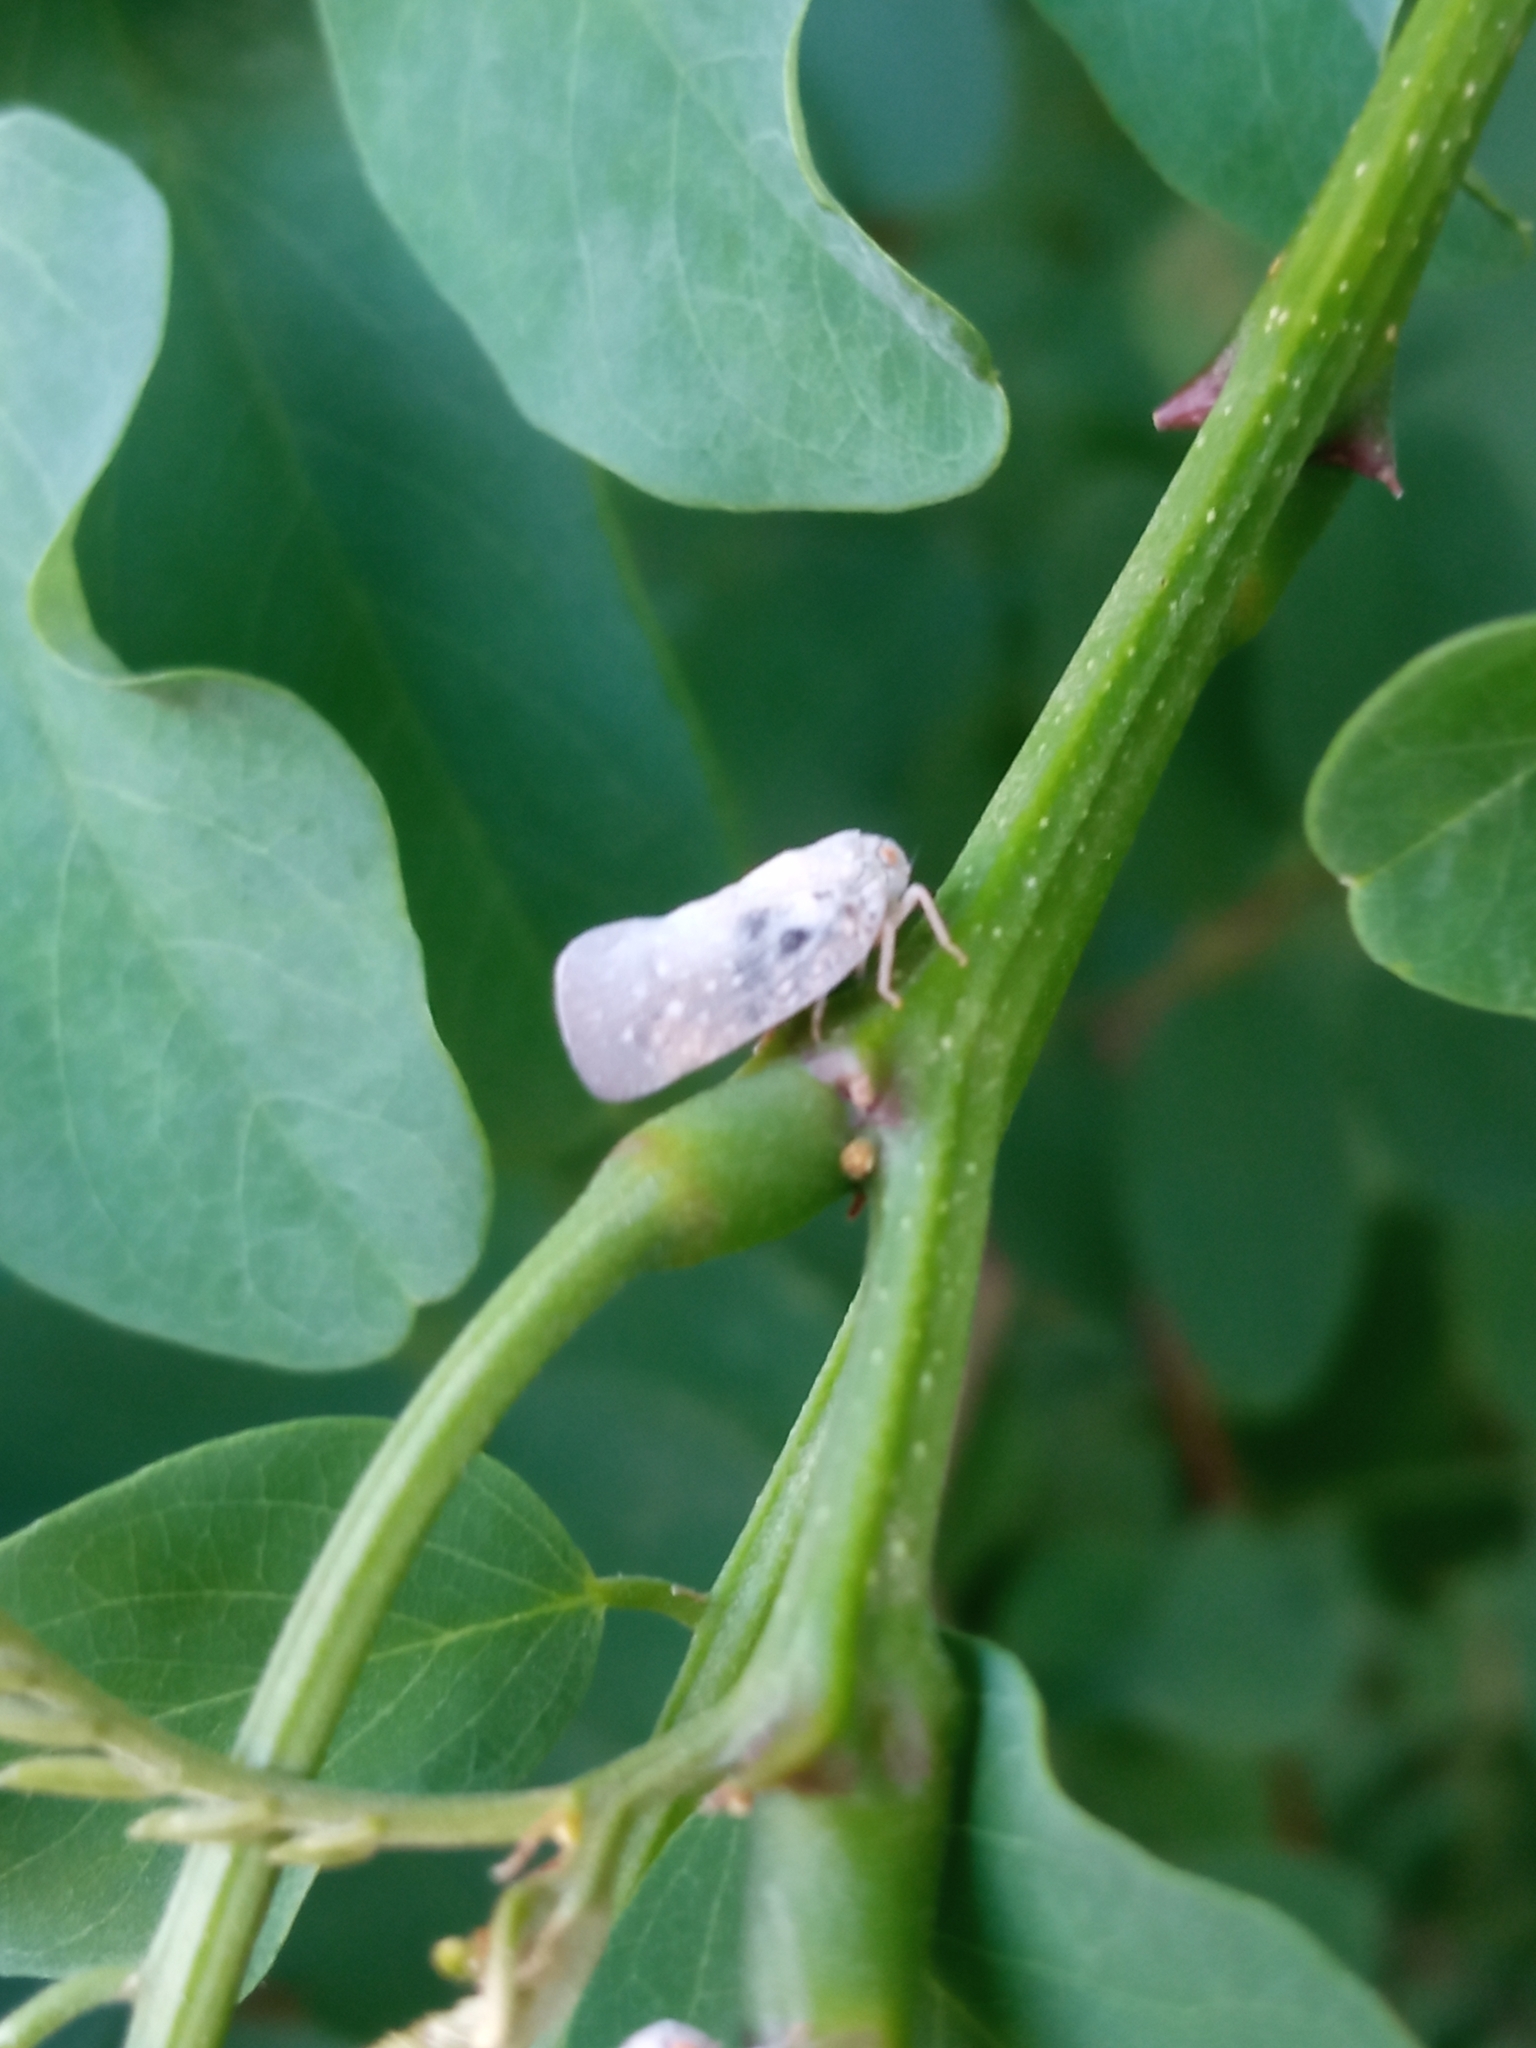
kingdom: Animalia
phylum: Arthropoda
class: Insecta
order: Hemiptera
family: Flatidae
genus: Metcalfa
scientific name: Metcalfa pruinosa
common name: Citrus flatid planthopper
